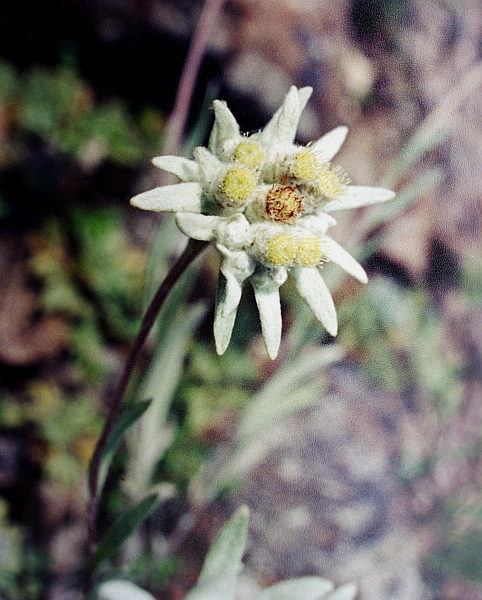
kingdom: Plantae
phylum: Tracheophyta
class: Magnoliopsida
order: Asterales
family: Asteraceae
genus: Leontopodium
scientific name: Leontopodium conglobatum
